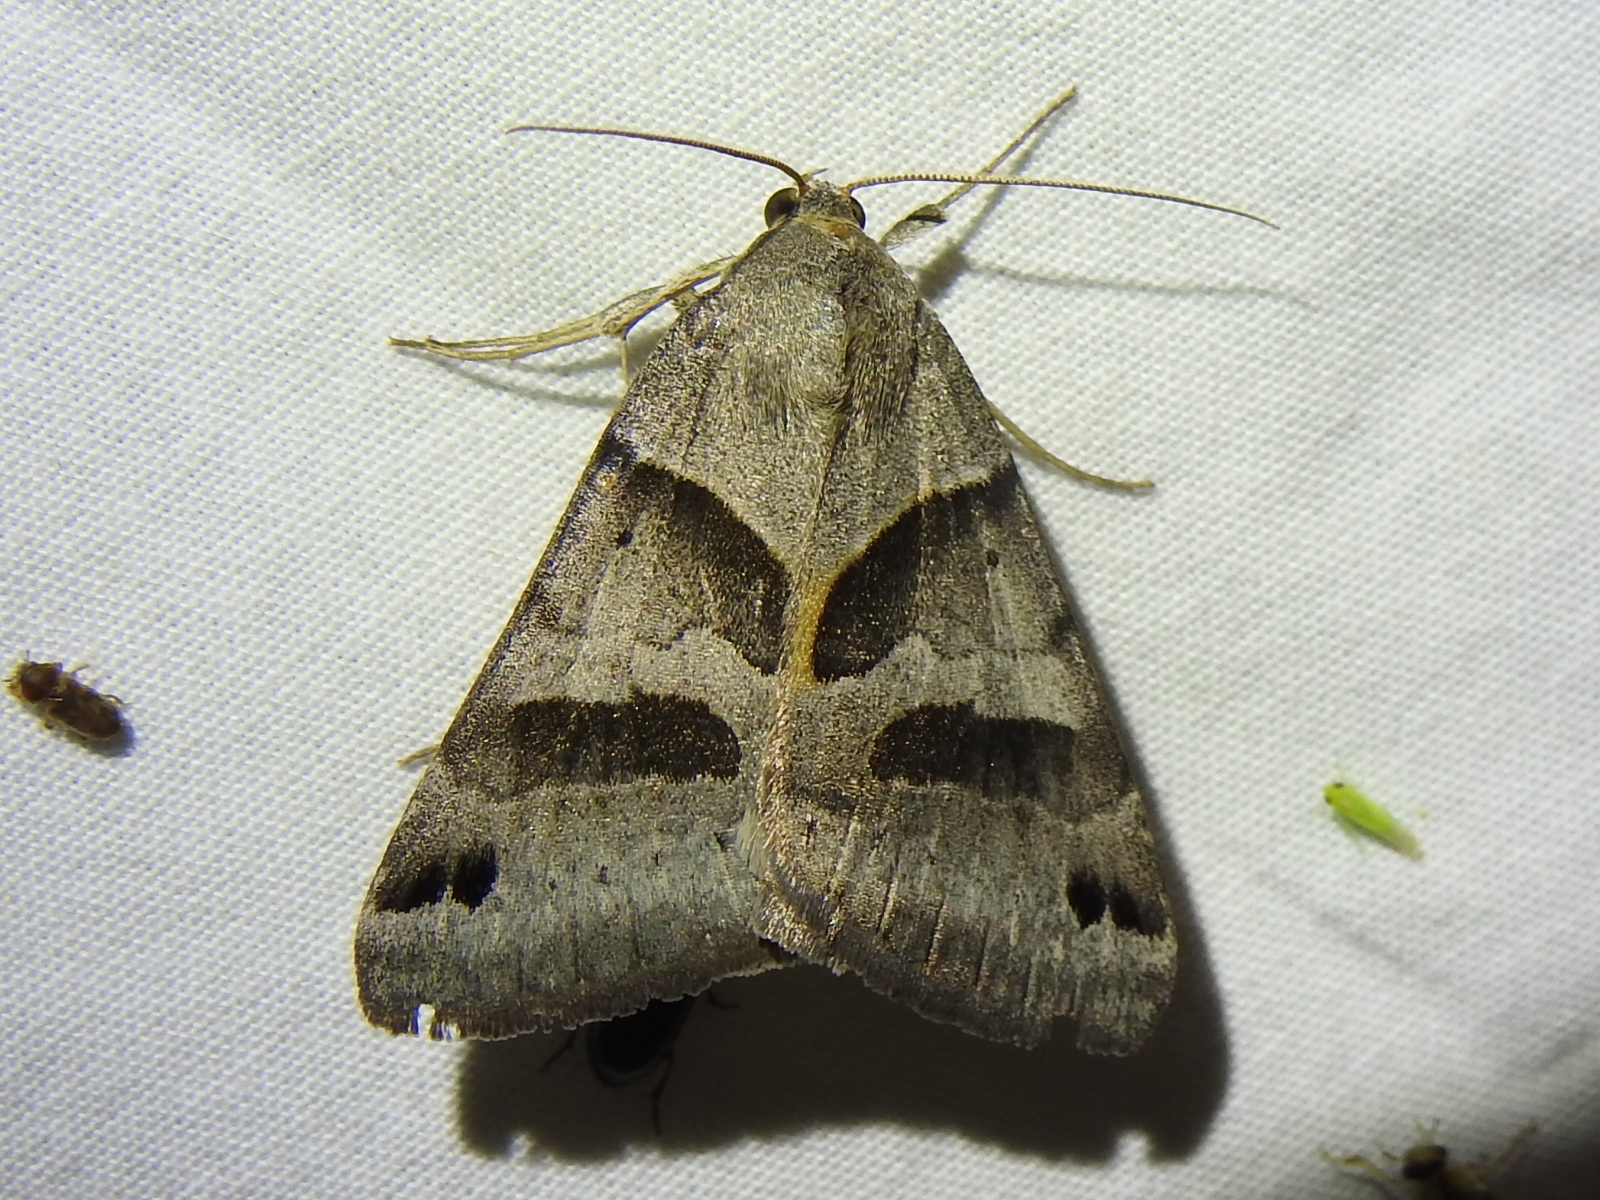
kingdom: Animalia
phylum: Arthropoda
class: Insecta
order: Lepidoptera
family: Erebidae
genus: Caenurgina
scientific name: Caenurgina erechtea
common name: Forage looper moth
